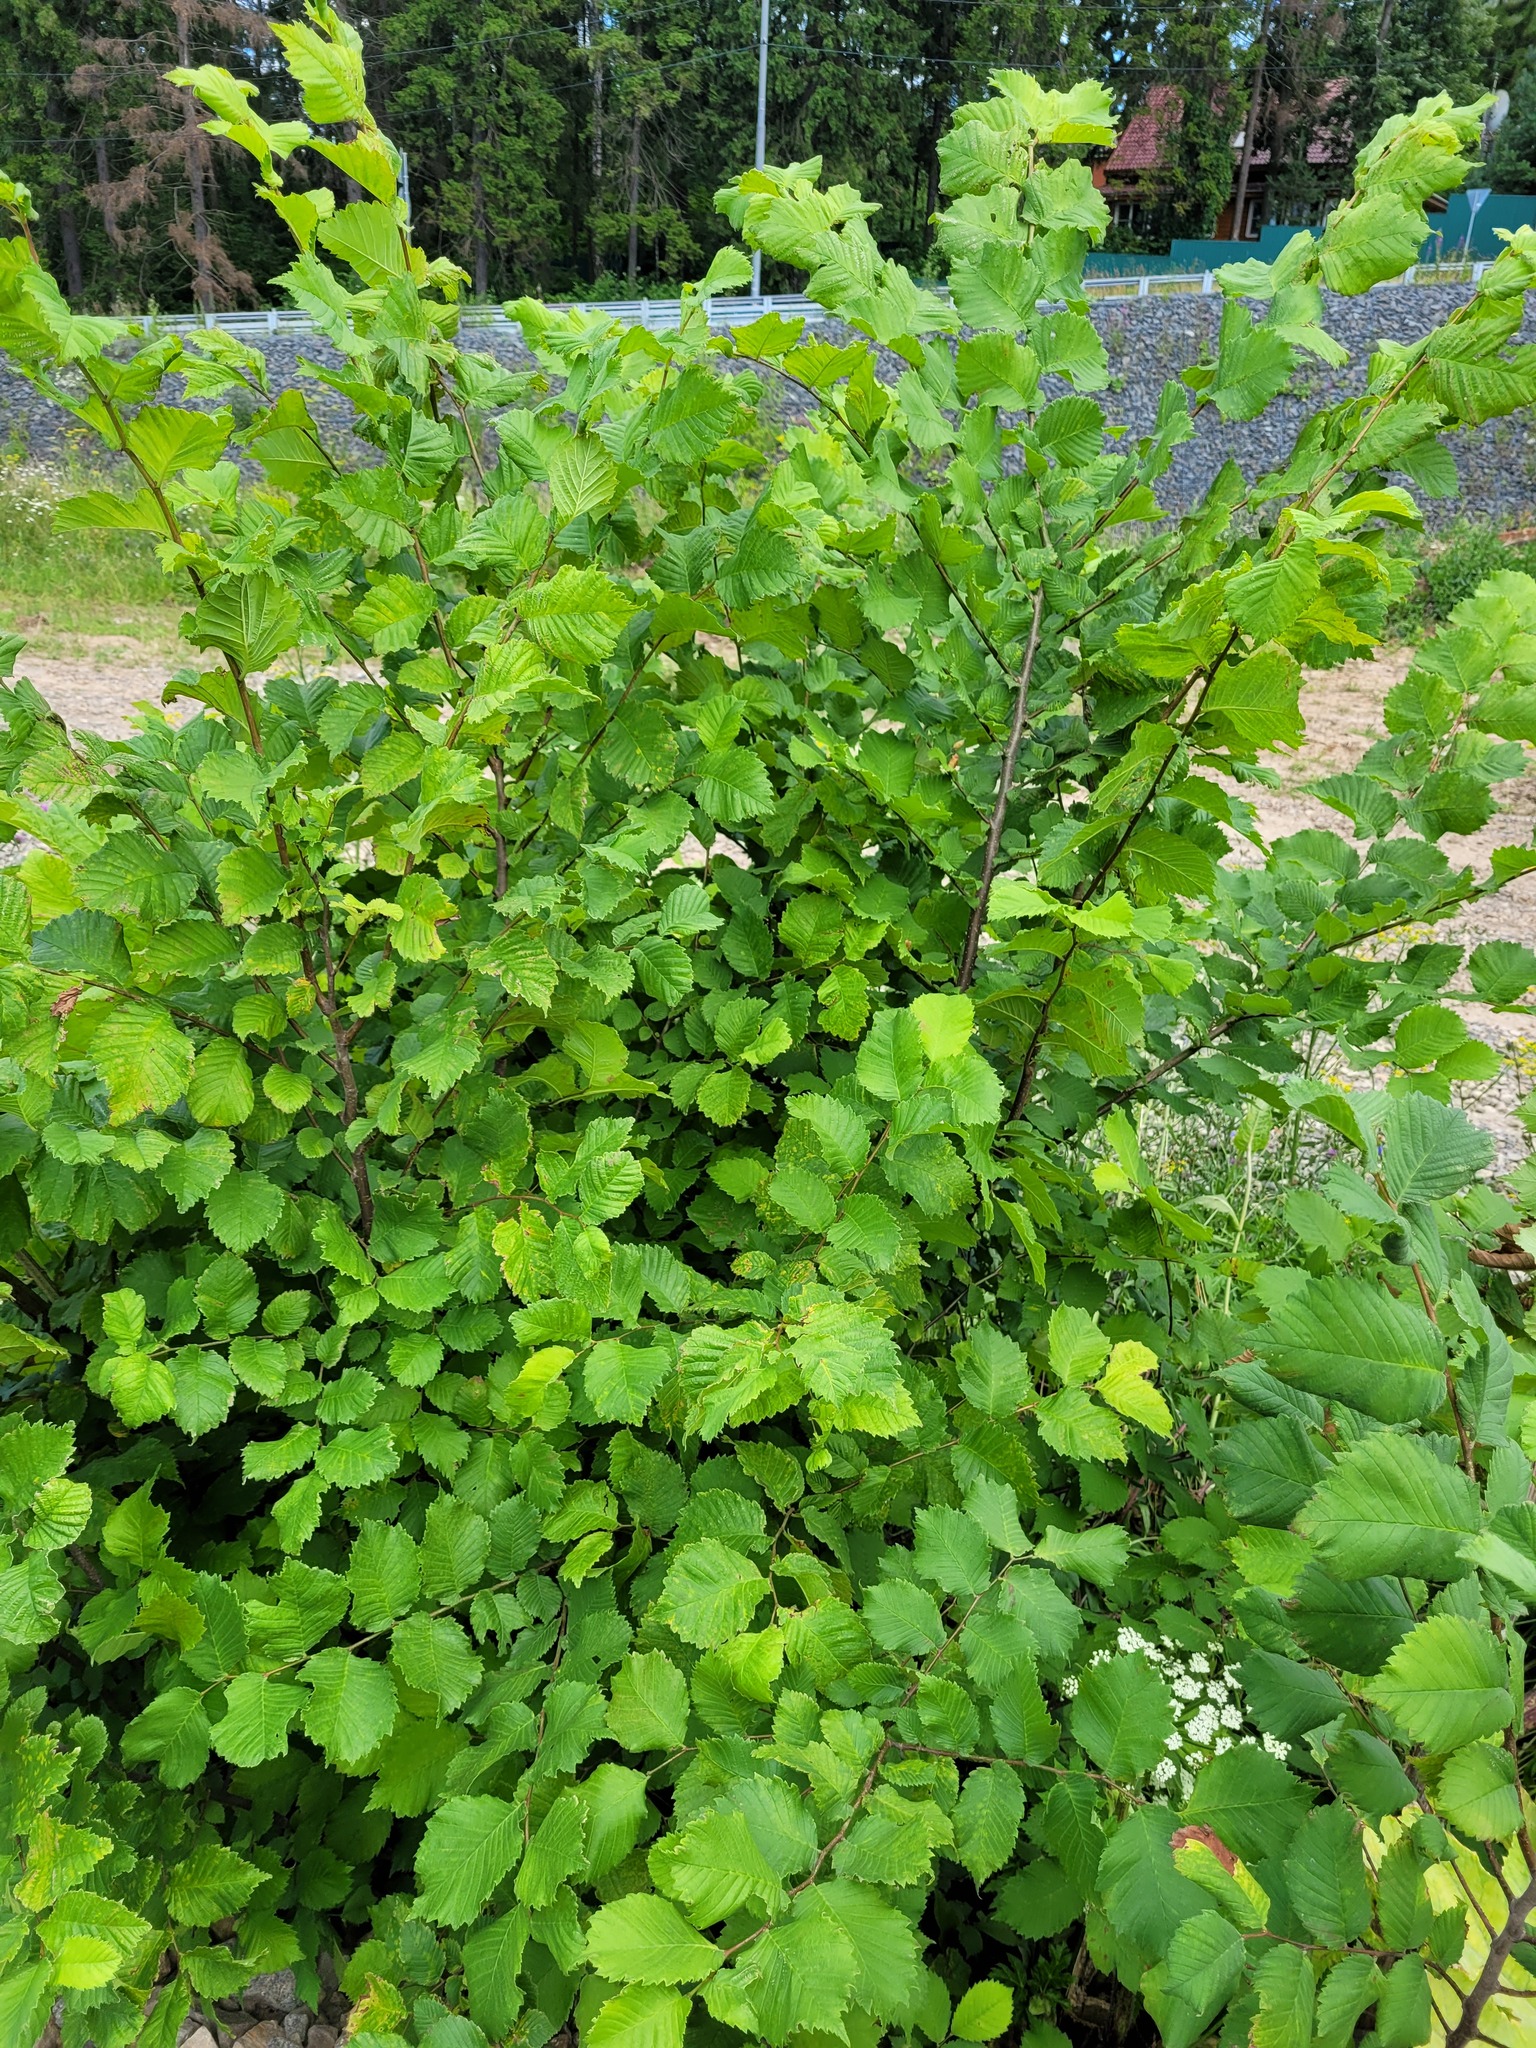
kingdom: Plantae
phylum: Tracheophyta
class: Magnoliopsida
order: Rosales
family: Ulmaceae
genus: Ulmus
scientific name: Ulmus laevis
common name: European white-elm
